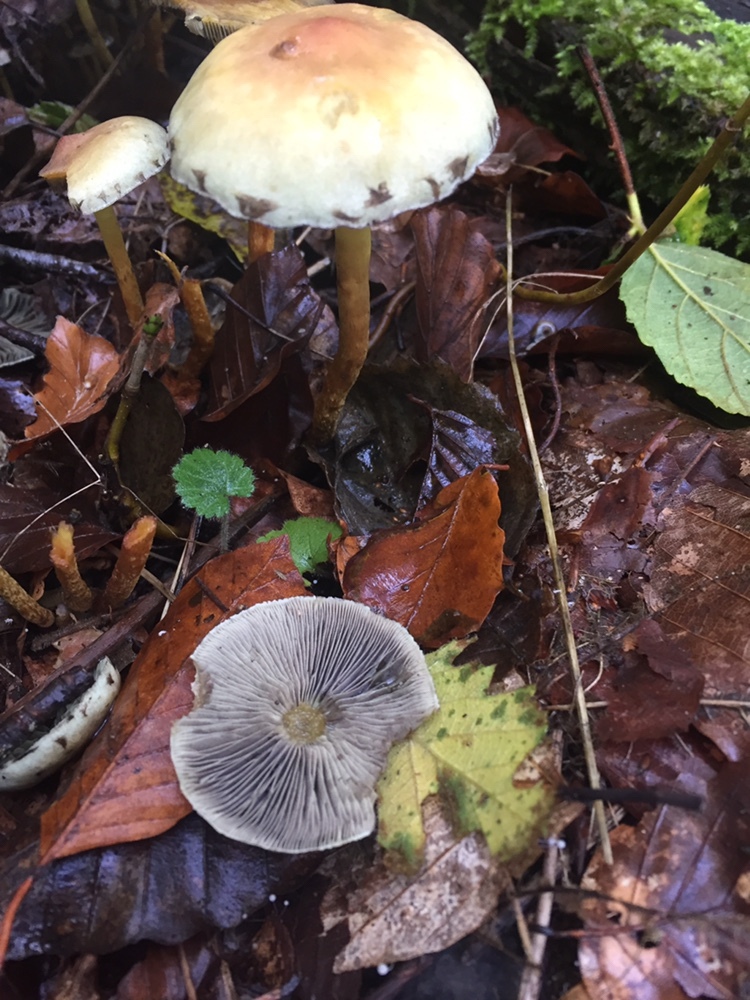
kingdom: Fungi
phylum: Basidiomycota
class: Agaricomycetes
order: Agaricales
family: Strophariaceae
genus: Hypholoma
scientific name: Hypholoma fasciculare
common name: Sulphur tuft
